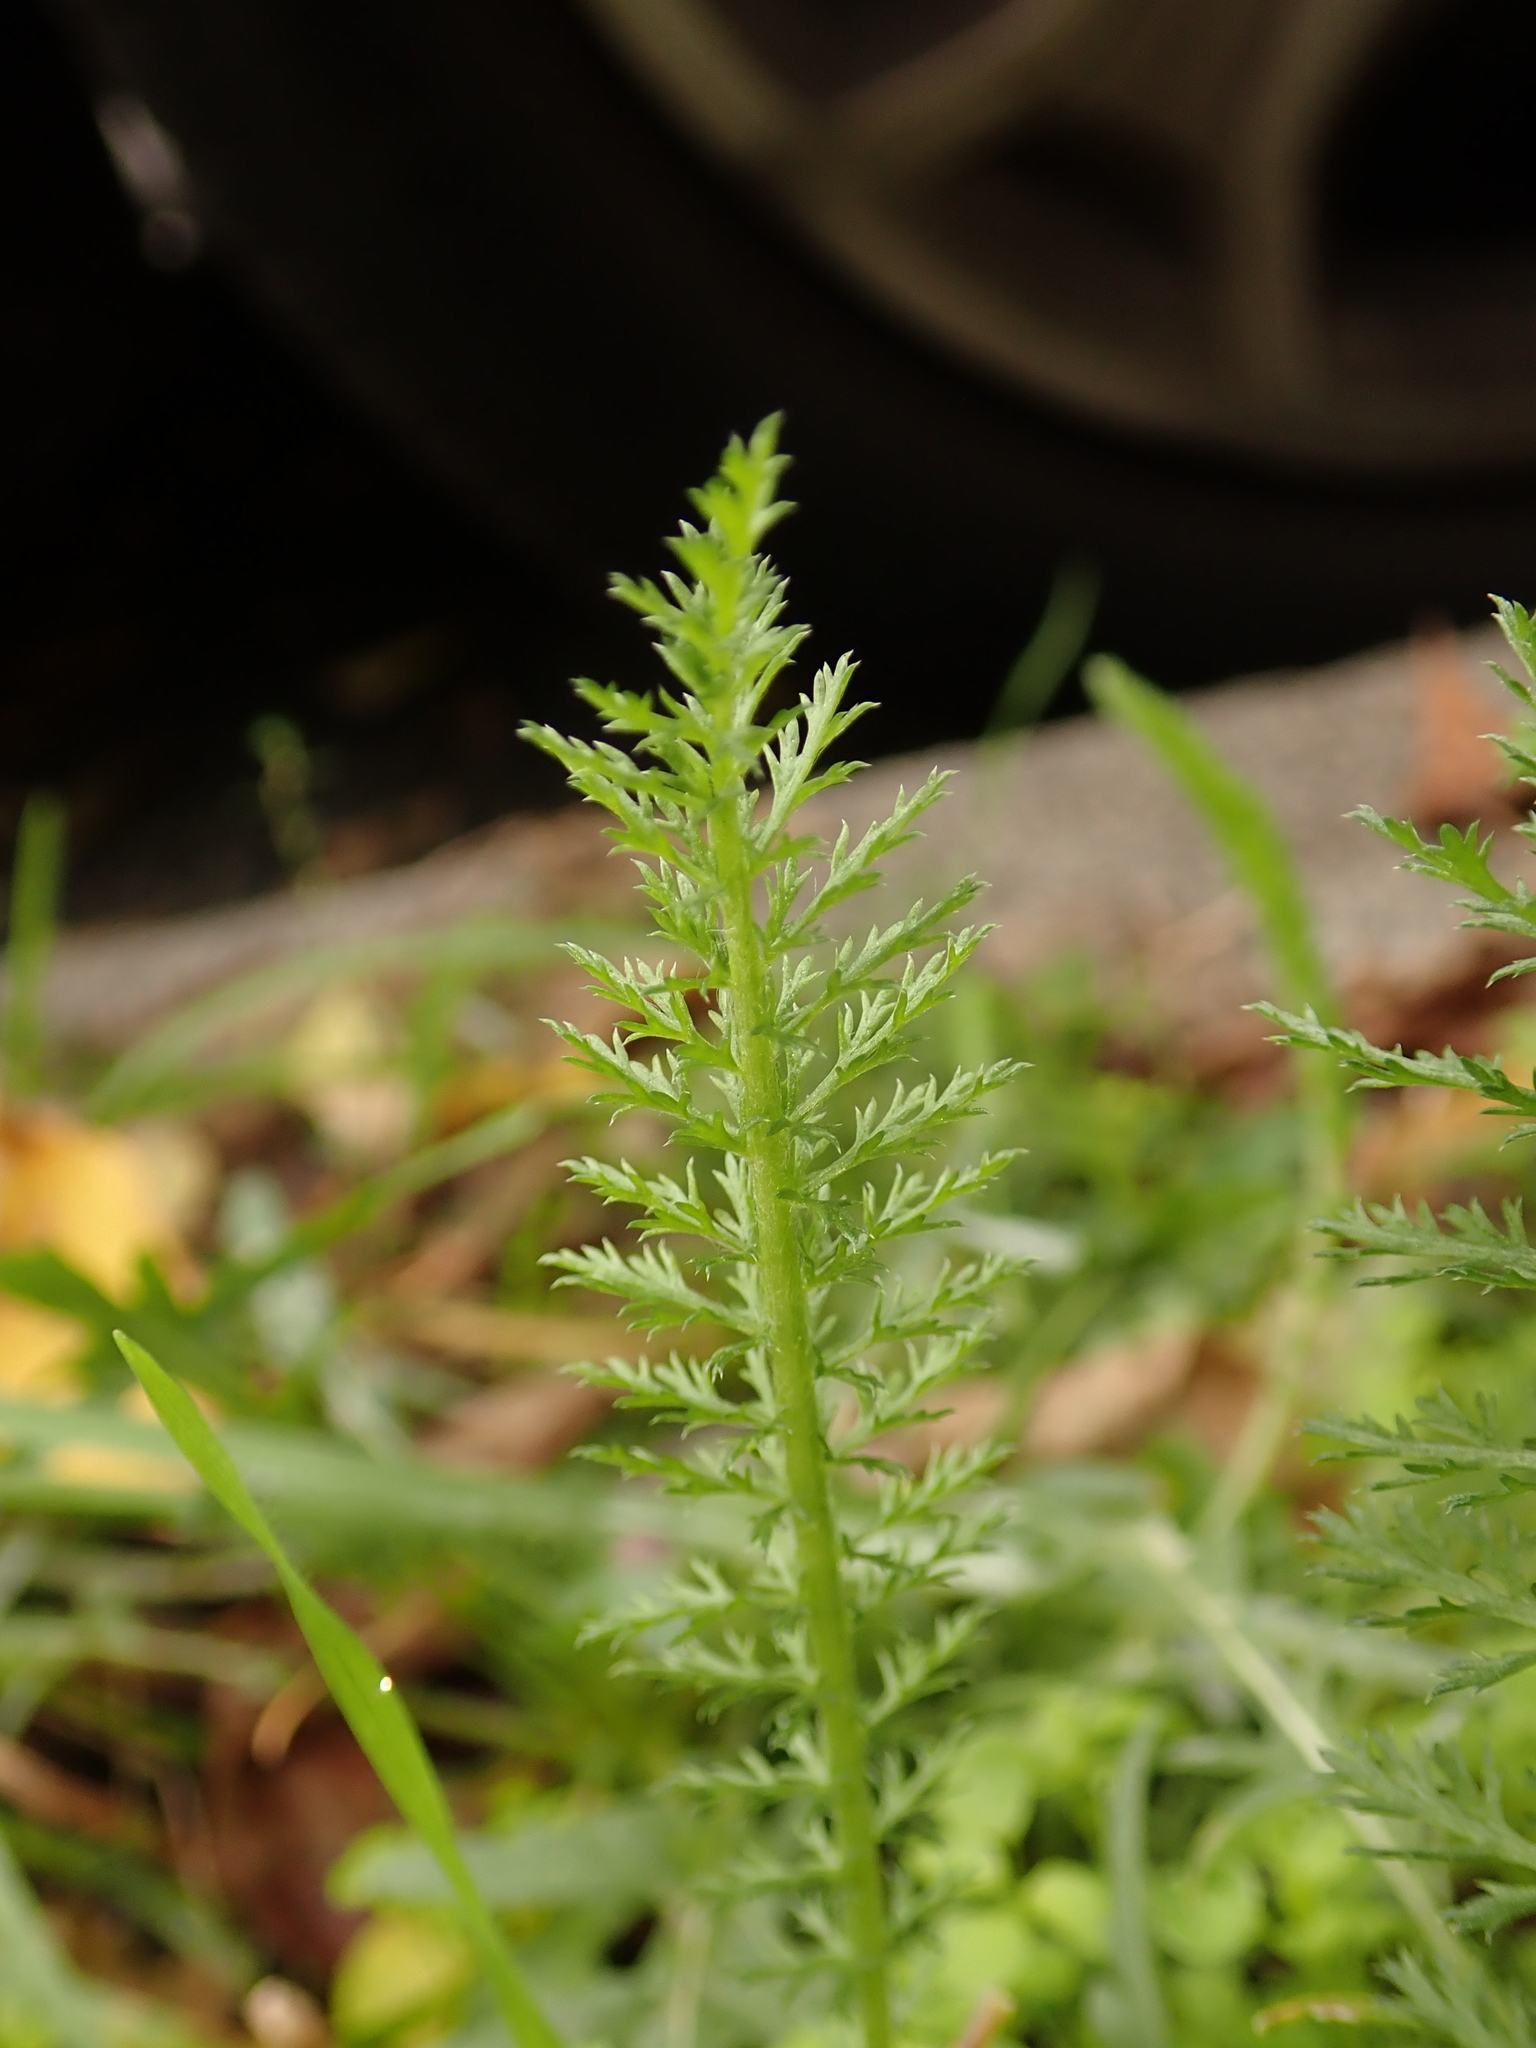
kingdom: Plantae
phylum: Tracheophyta
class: Magnoliopsida
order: Asterales
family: Asteraceae
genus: Achillea
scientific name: Achillea millefolium
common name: Yarrow
